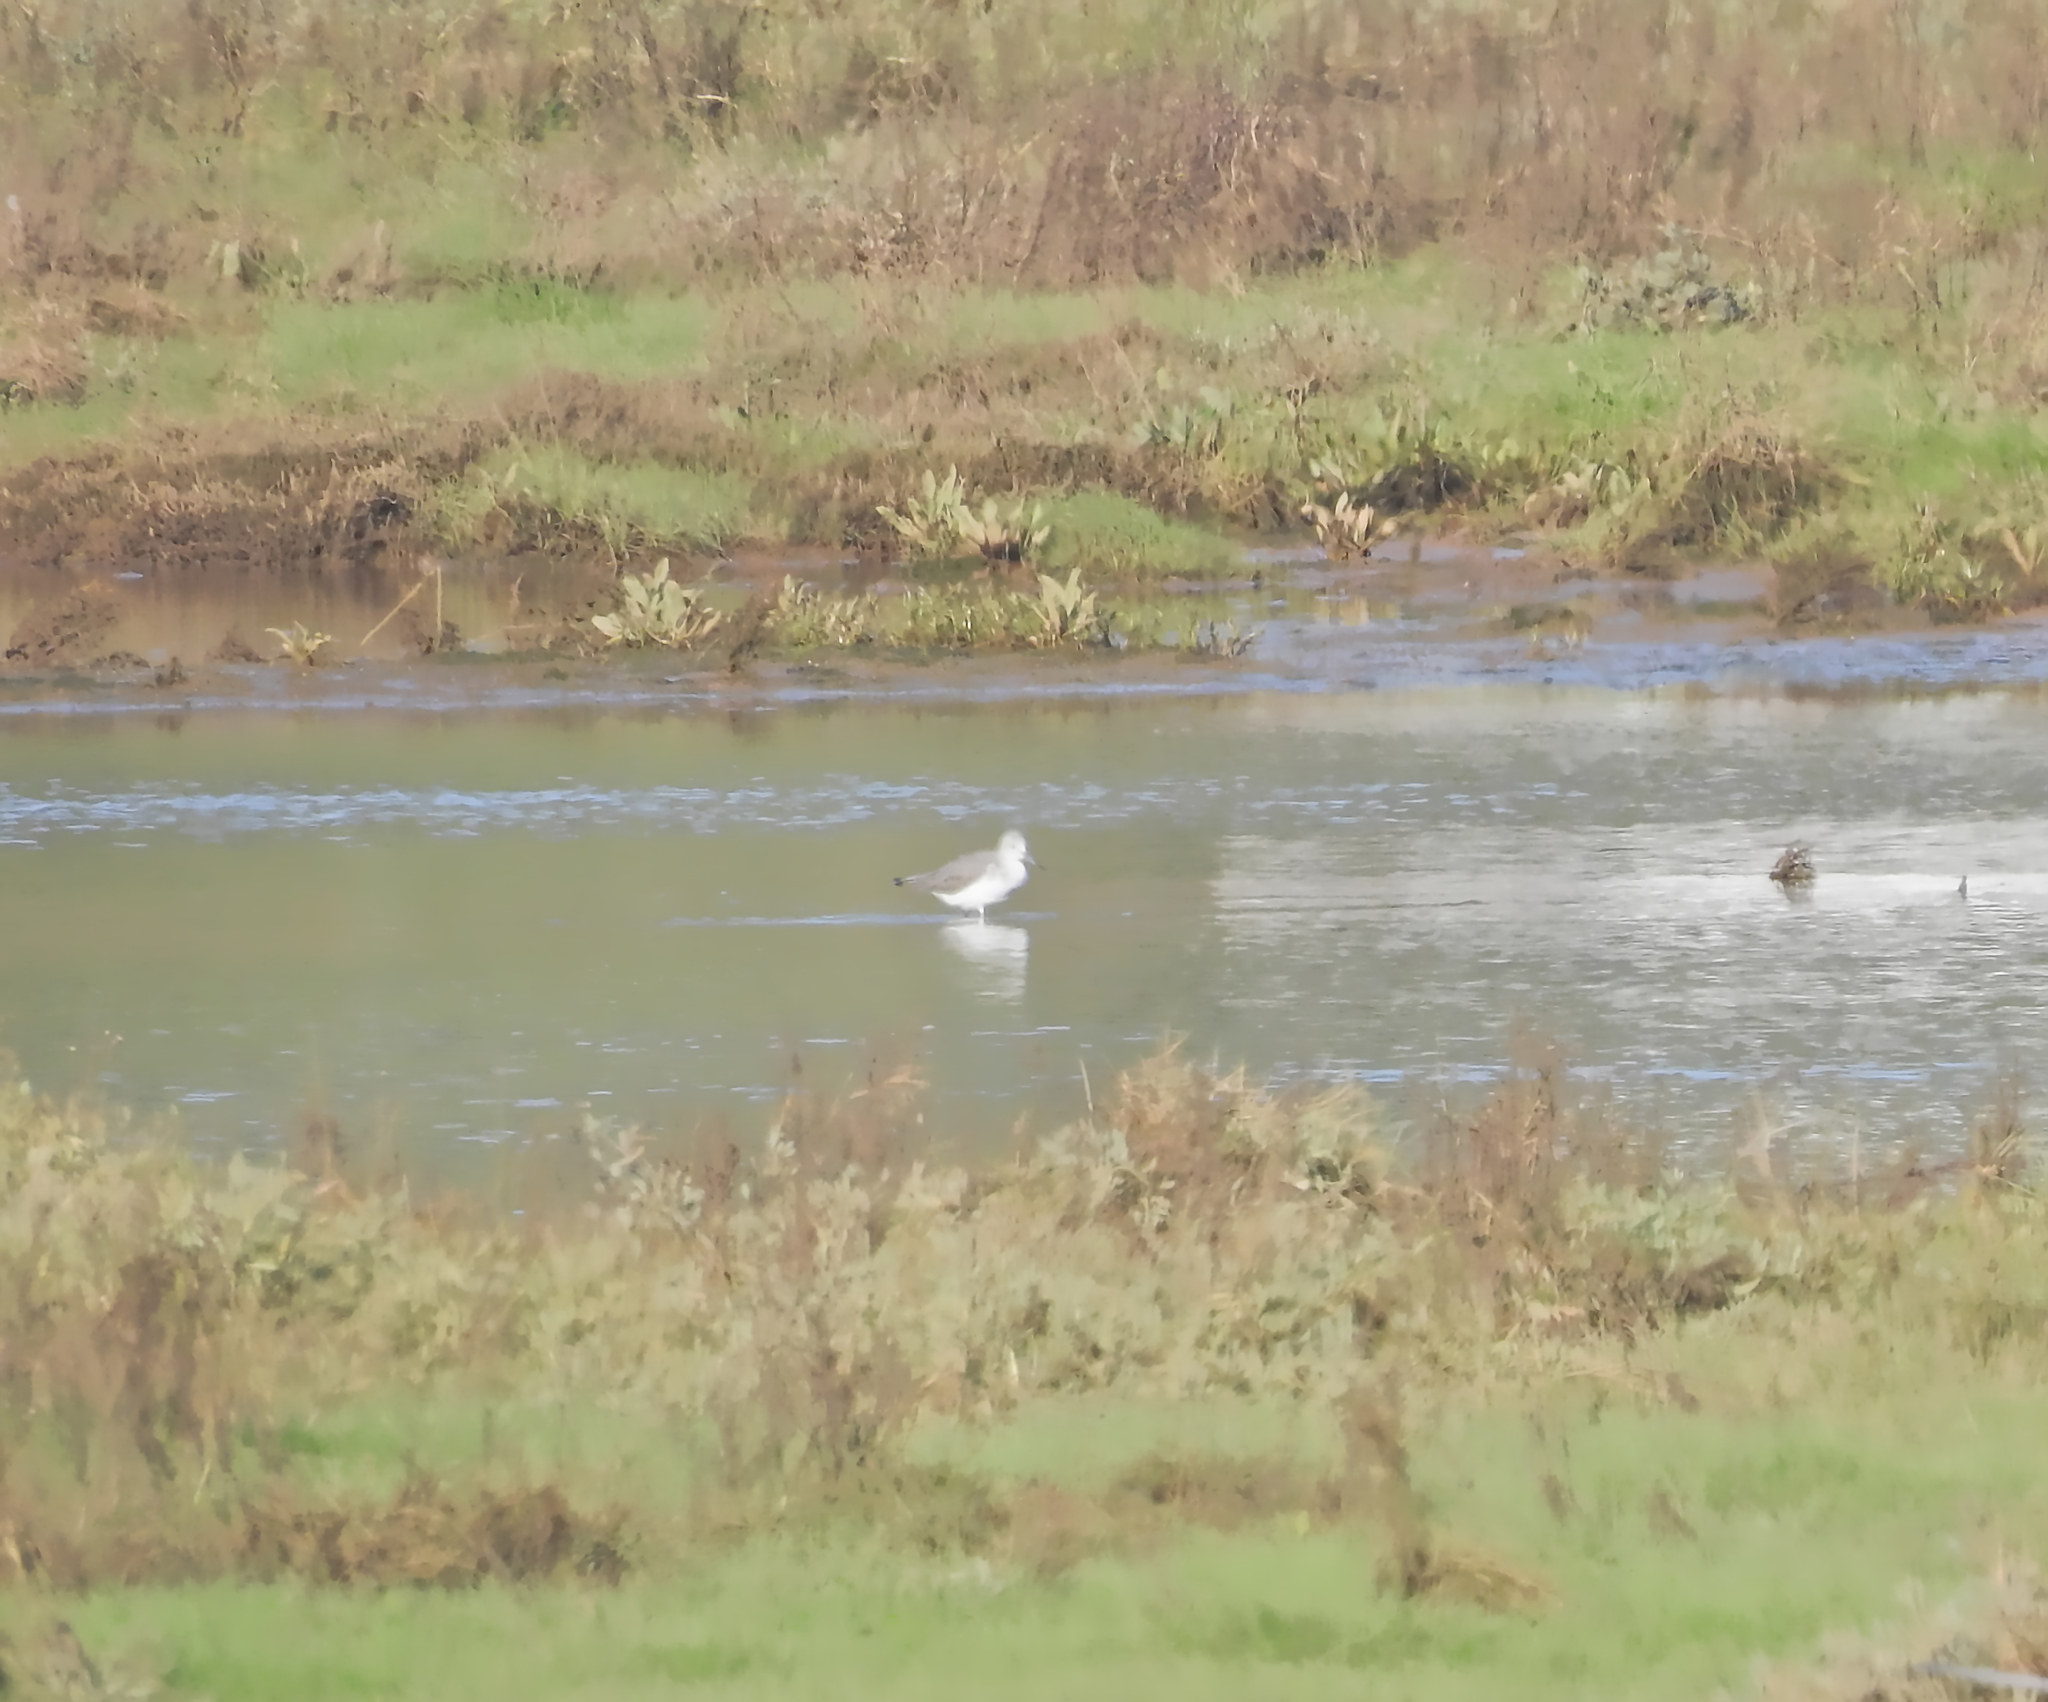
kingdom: Animalia
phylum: Chordata
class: Aves
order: Charadriiformes
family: Scolopacidae
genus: Tringa
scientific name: Tringa nebularia
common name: Common greenshank
